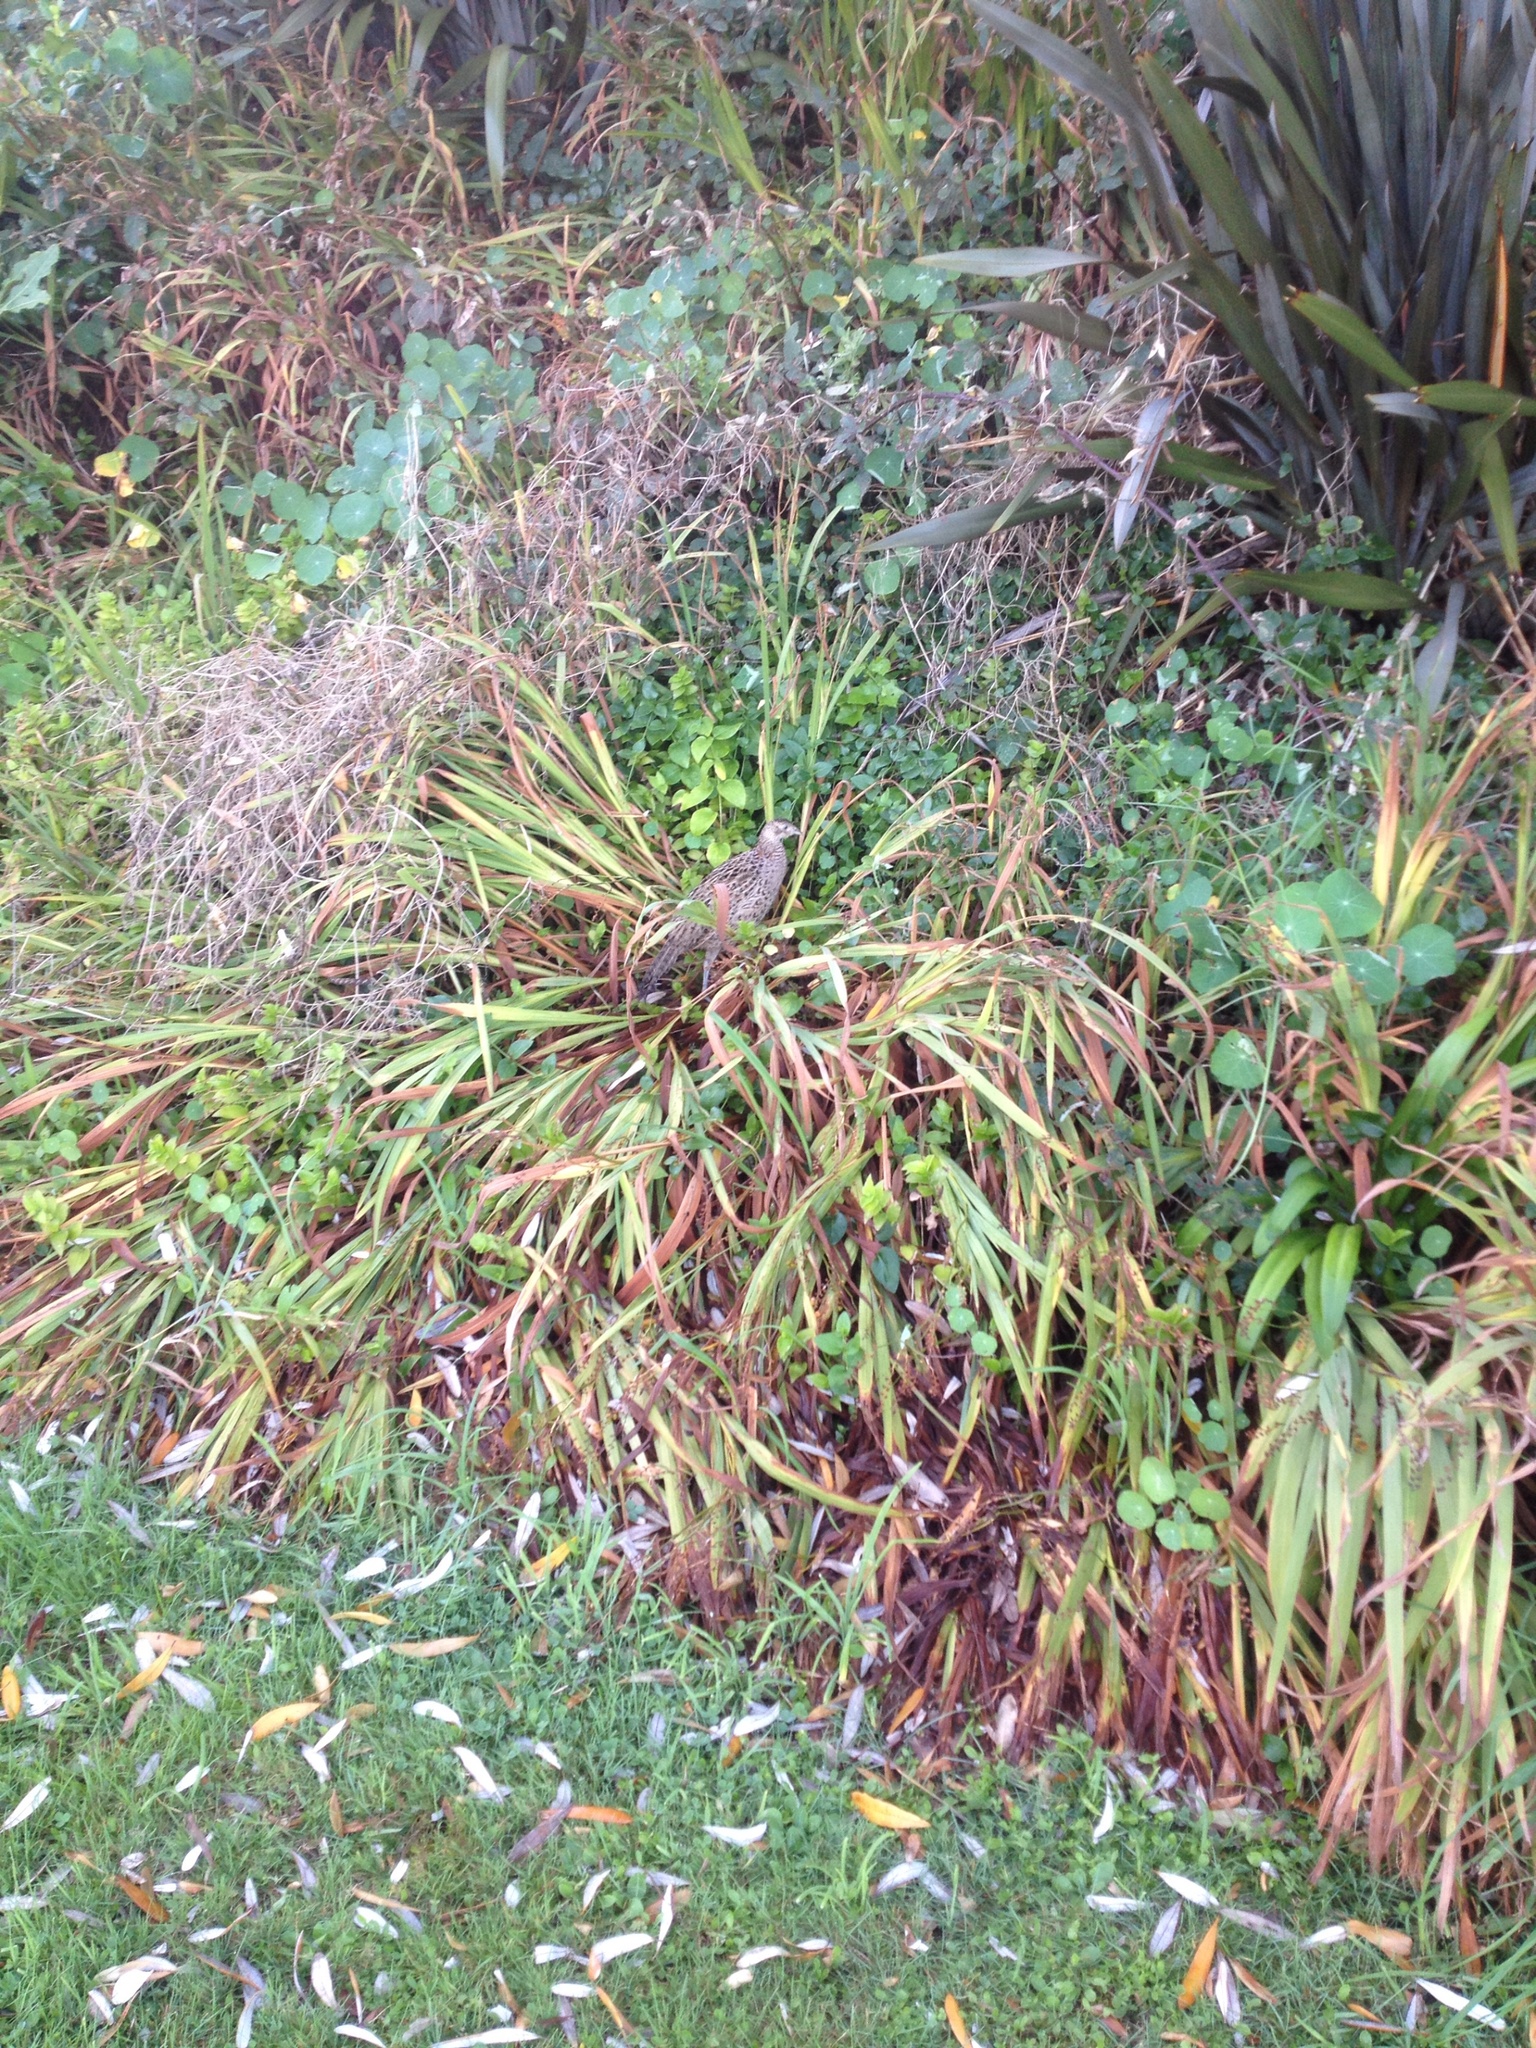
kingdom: Animalia
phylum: Chordata
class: Aves
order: Galliformes
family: Phasianidae
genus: Phasianus
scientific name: Phasianus colchicus
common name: Common pheasant
